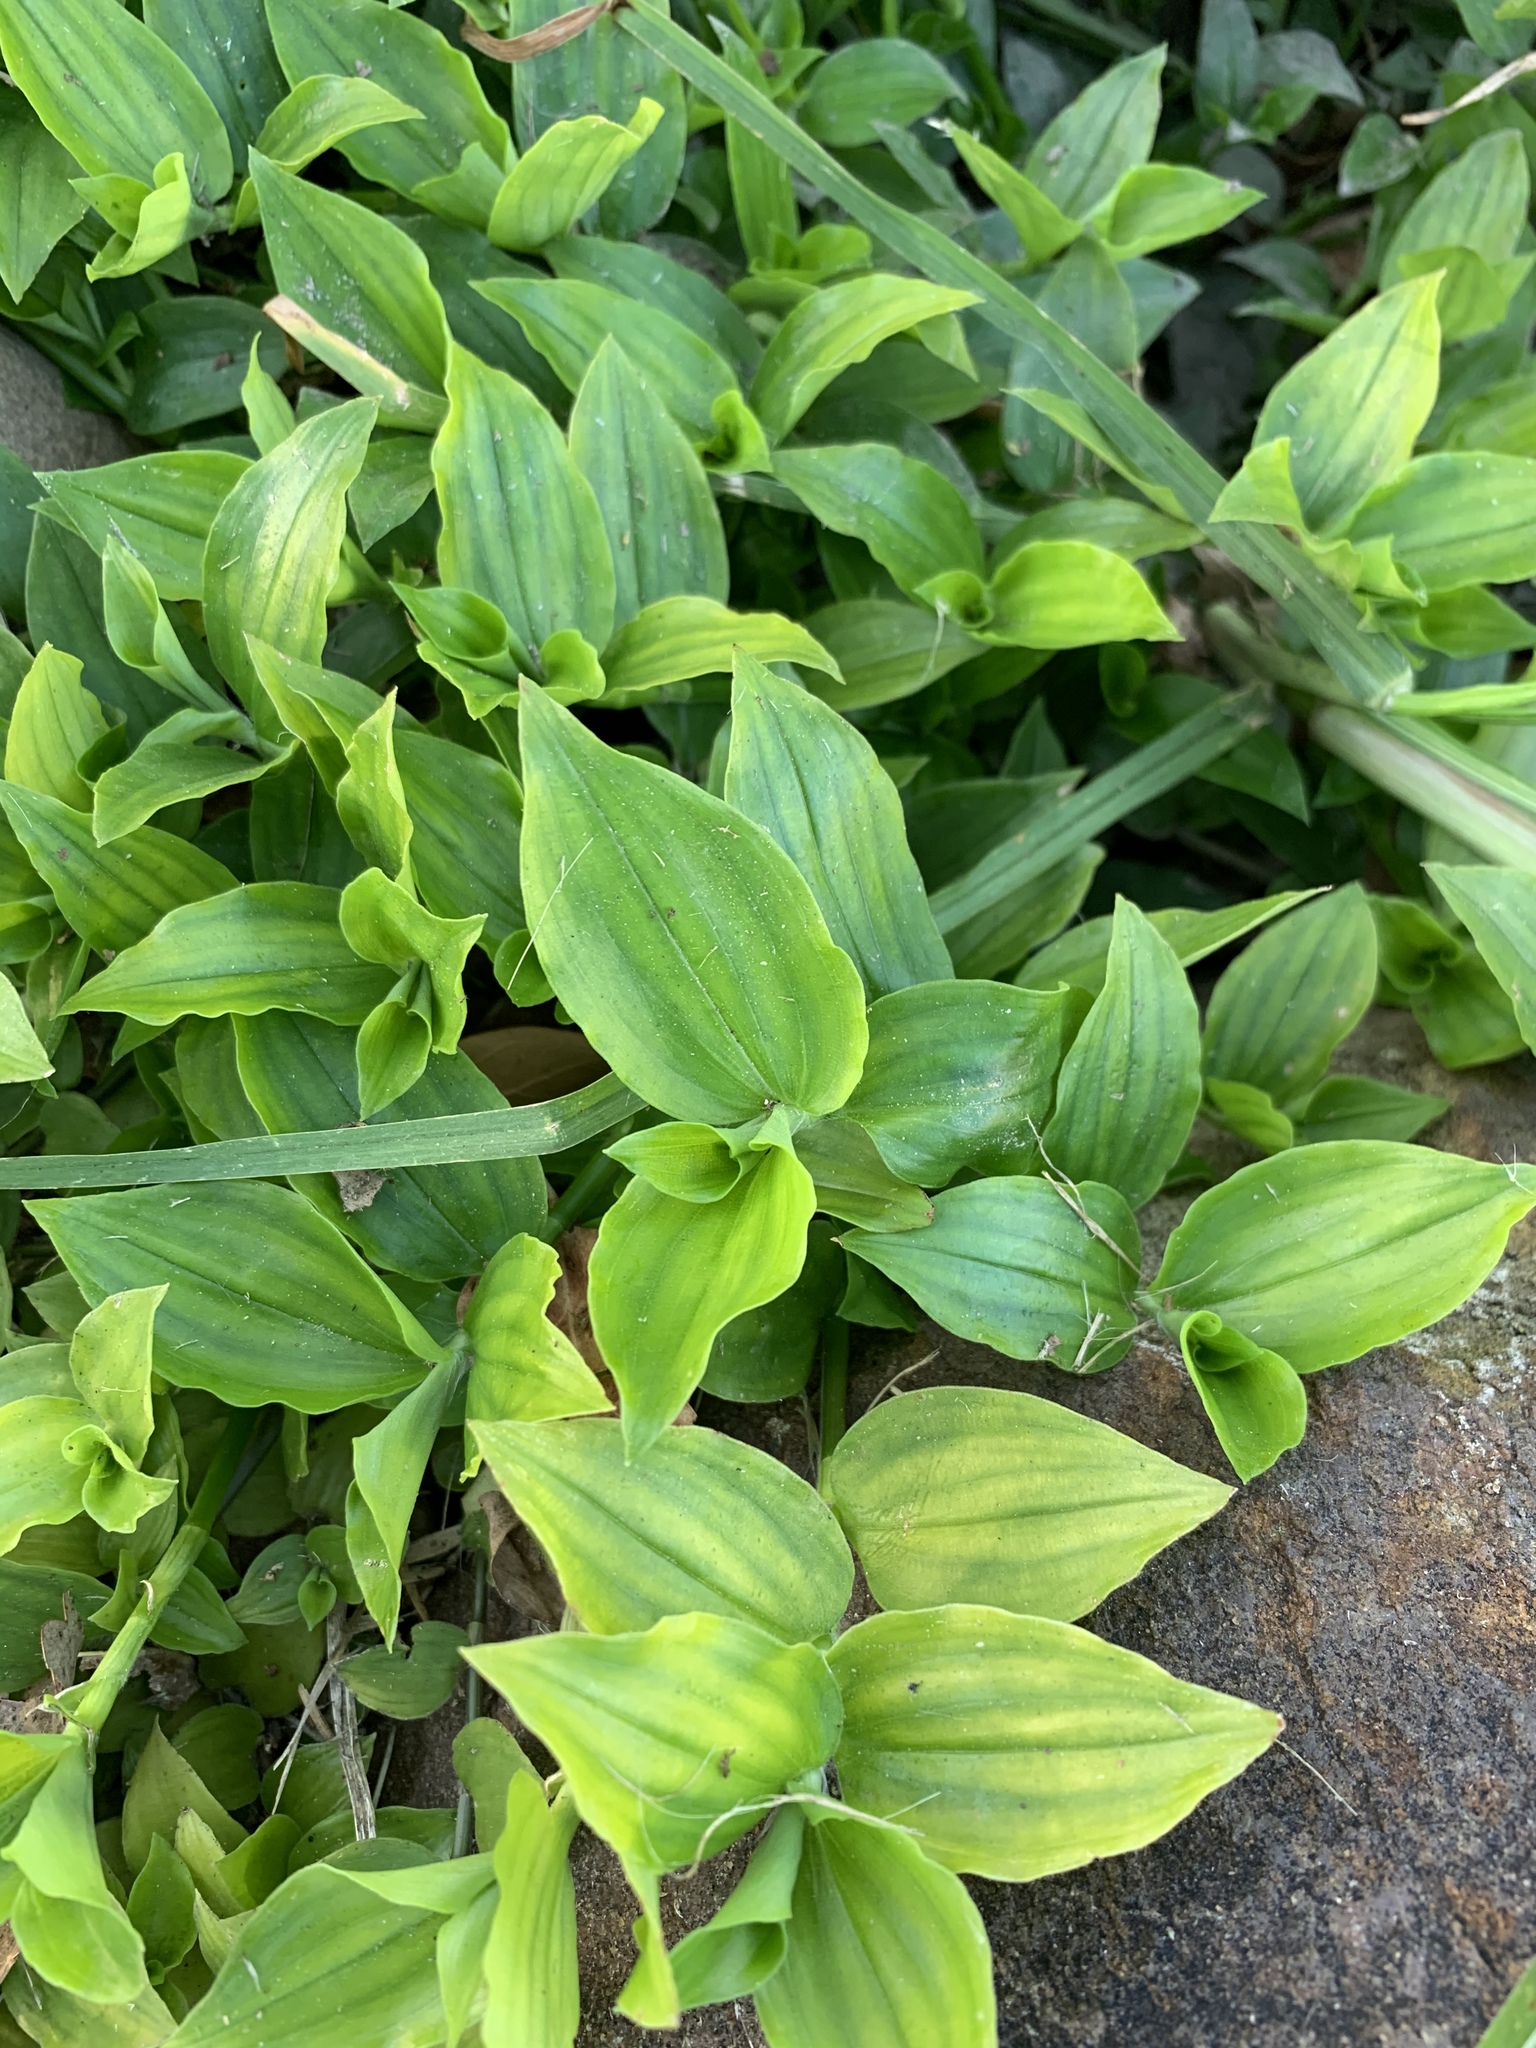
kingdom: Plantae
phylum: Tracheophyta
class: Liliopsida
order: Commelinales
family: Commelinaceae
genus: Tradescantia
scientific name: Tradescantia fluminensis
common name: Wandering-jew
